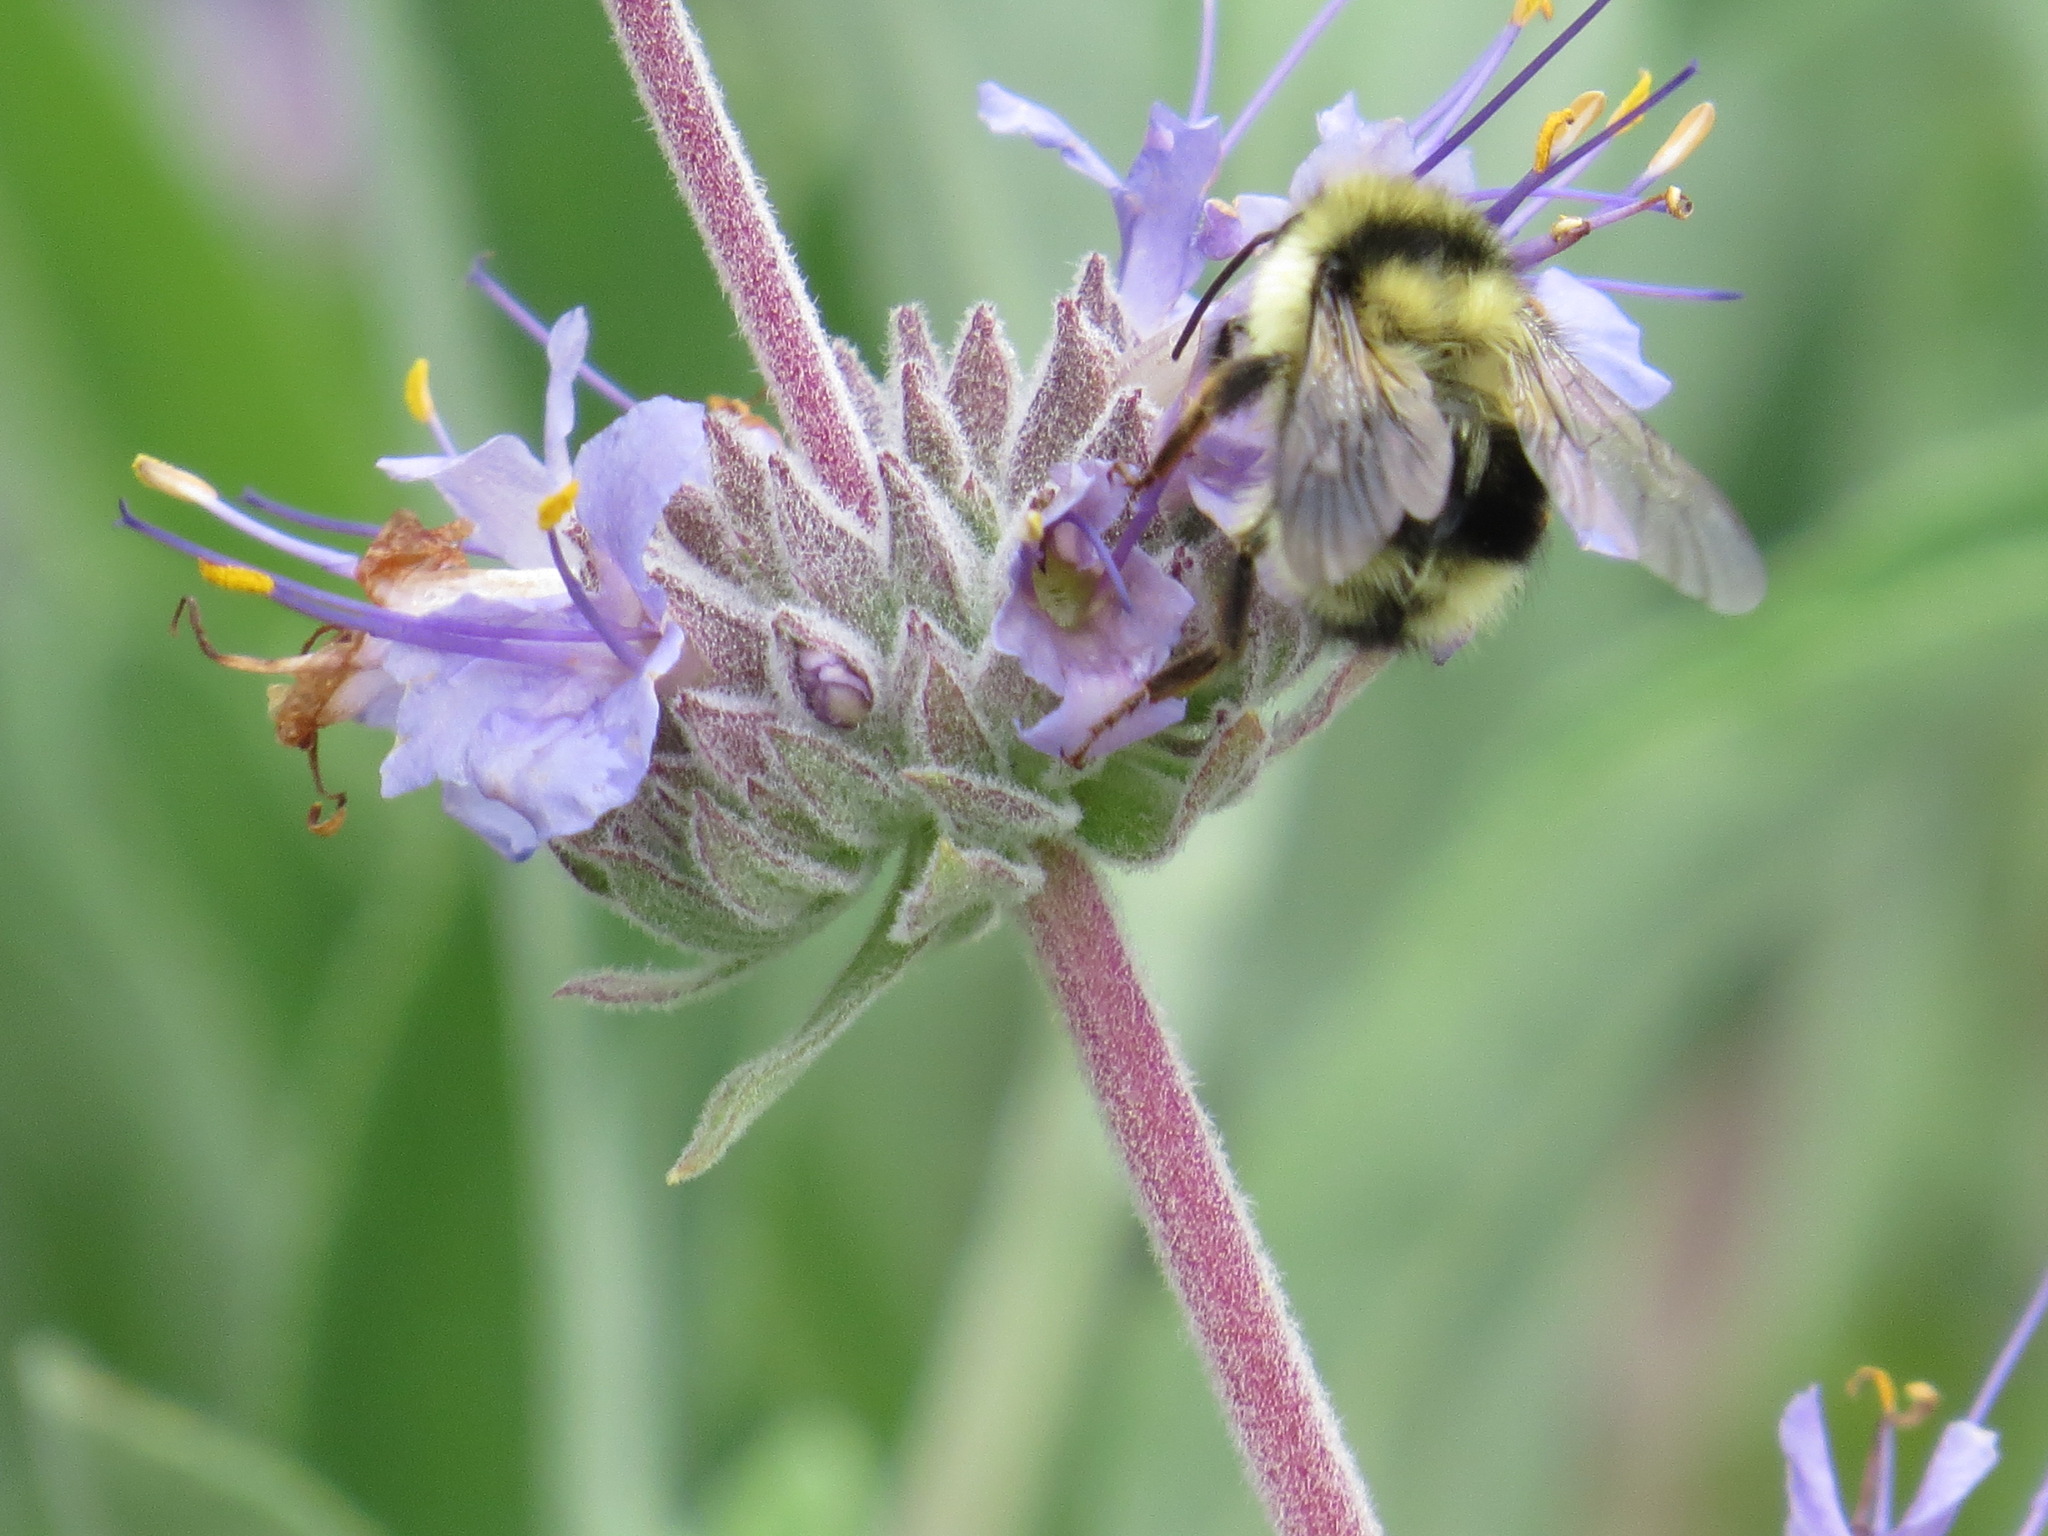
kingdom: Animalia
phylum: Arthropoda
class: Insecta
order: Hymenoptera
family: Apidae
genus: Bombus
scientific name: Bombus melanopygus
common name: Black tail bumble bee
